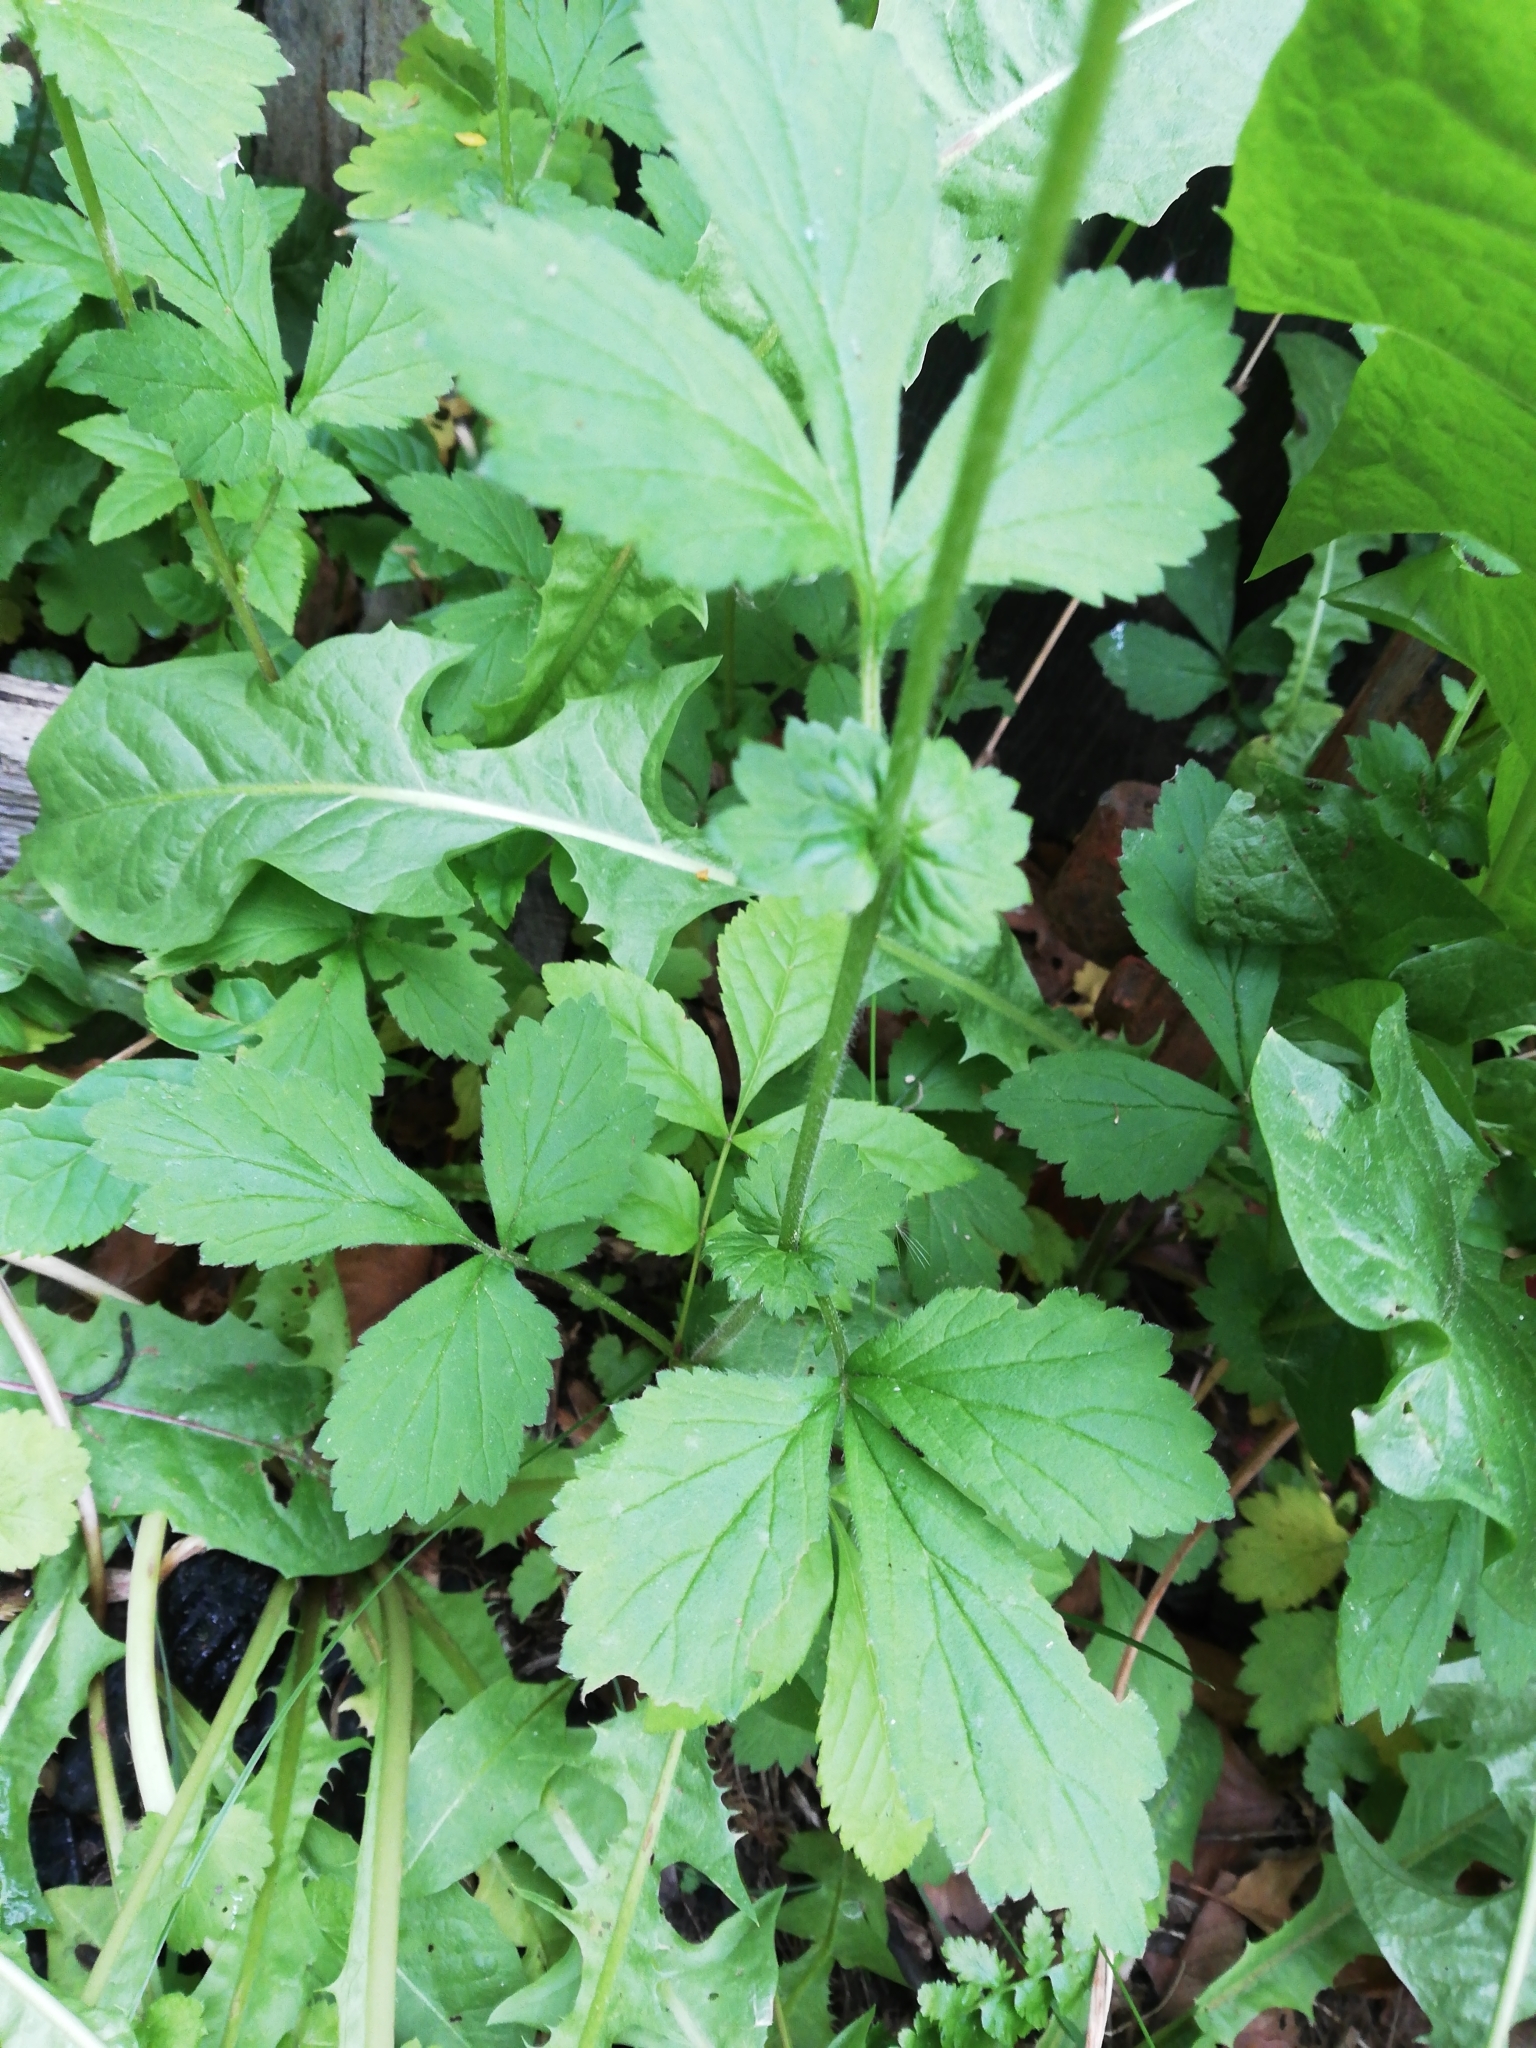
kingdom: Plantae
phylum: Tracheophyta
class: Magnoliopsida
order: Rosales
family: Rosaceae
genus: Geum
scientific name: Geum urbanum
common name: Wood avens
